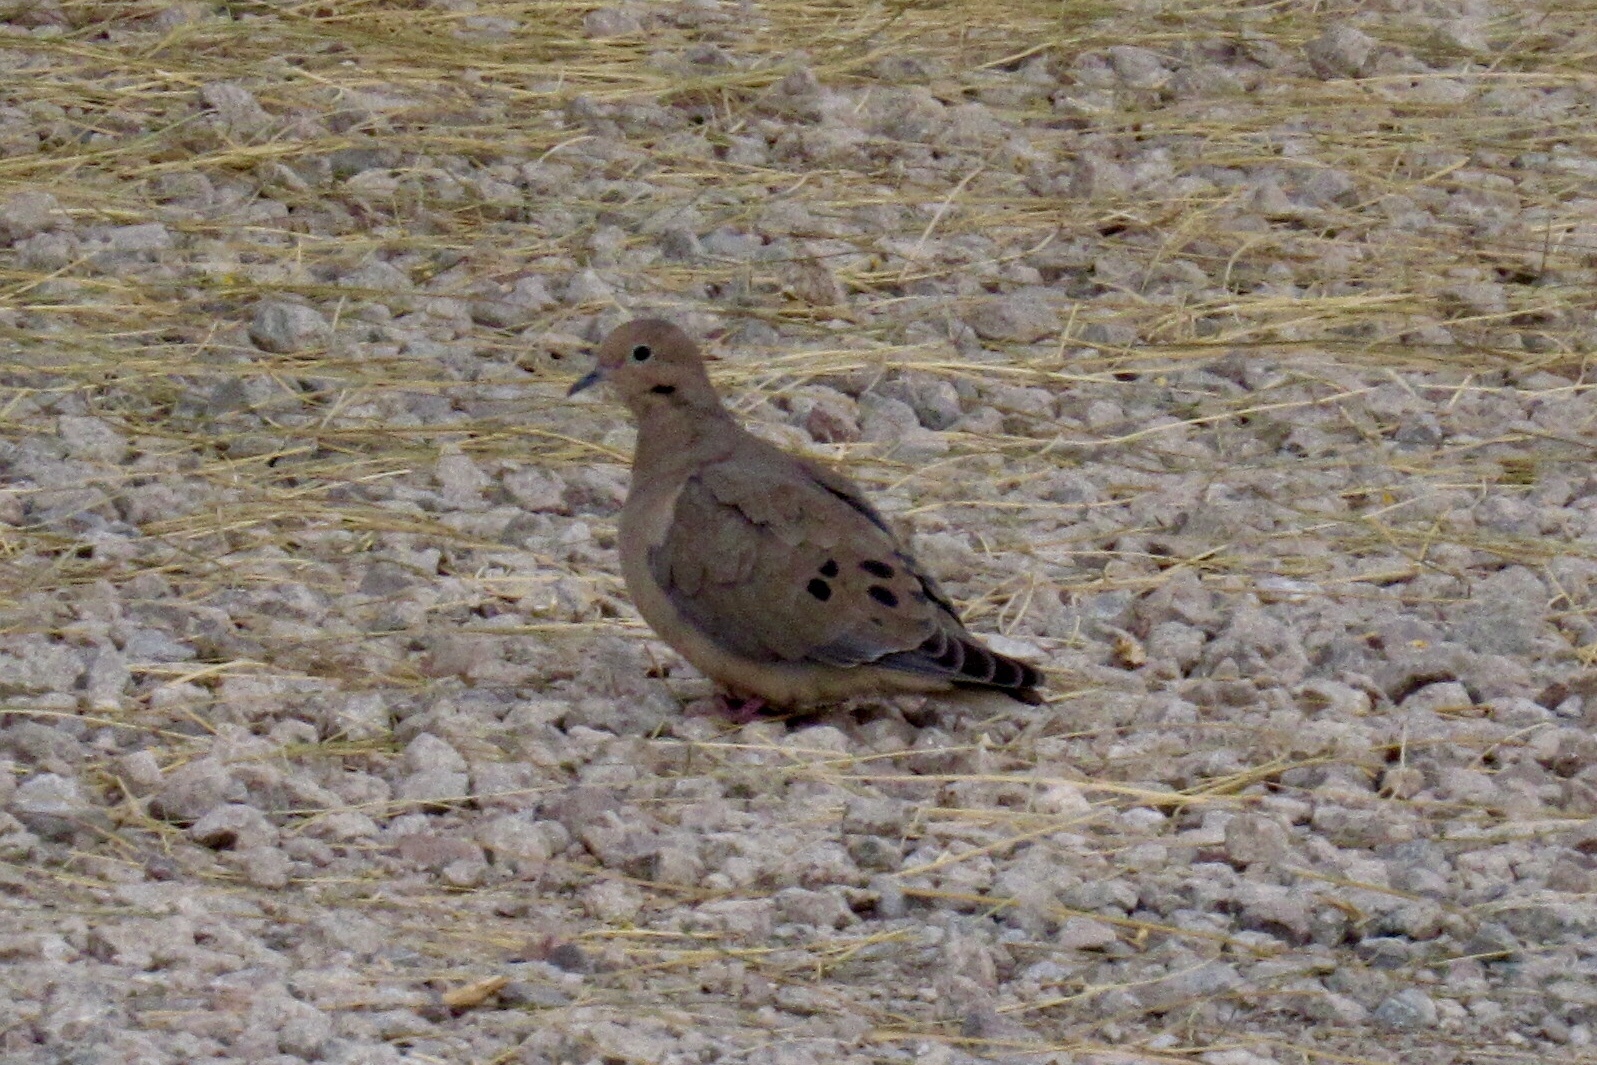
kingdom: Animalia
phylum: Chordata
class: Aves
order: Columbiformes
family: Columbidae
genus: Zenaida
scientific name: Zenaida macroura
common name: Mourning dove
